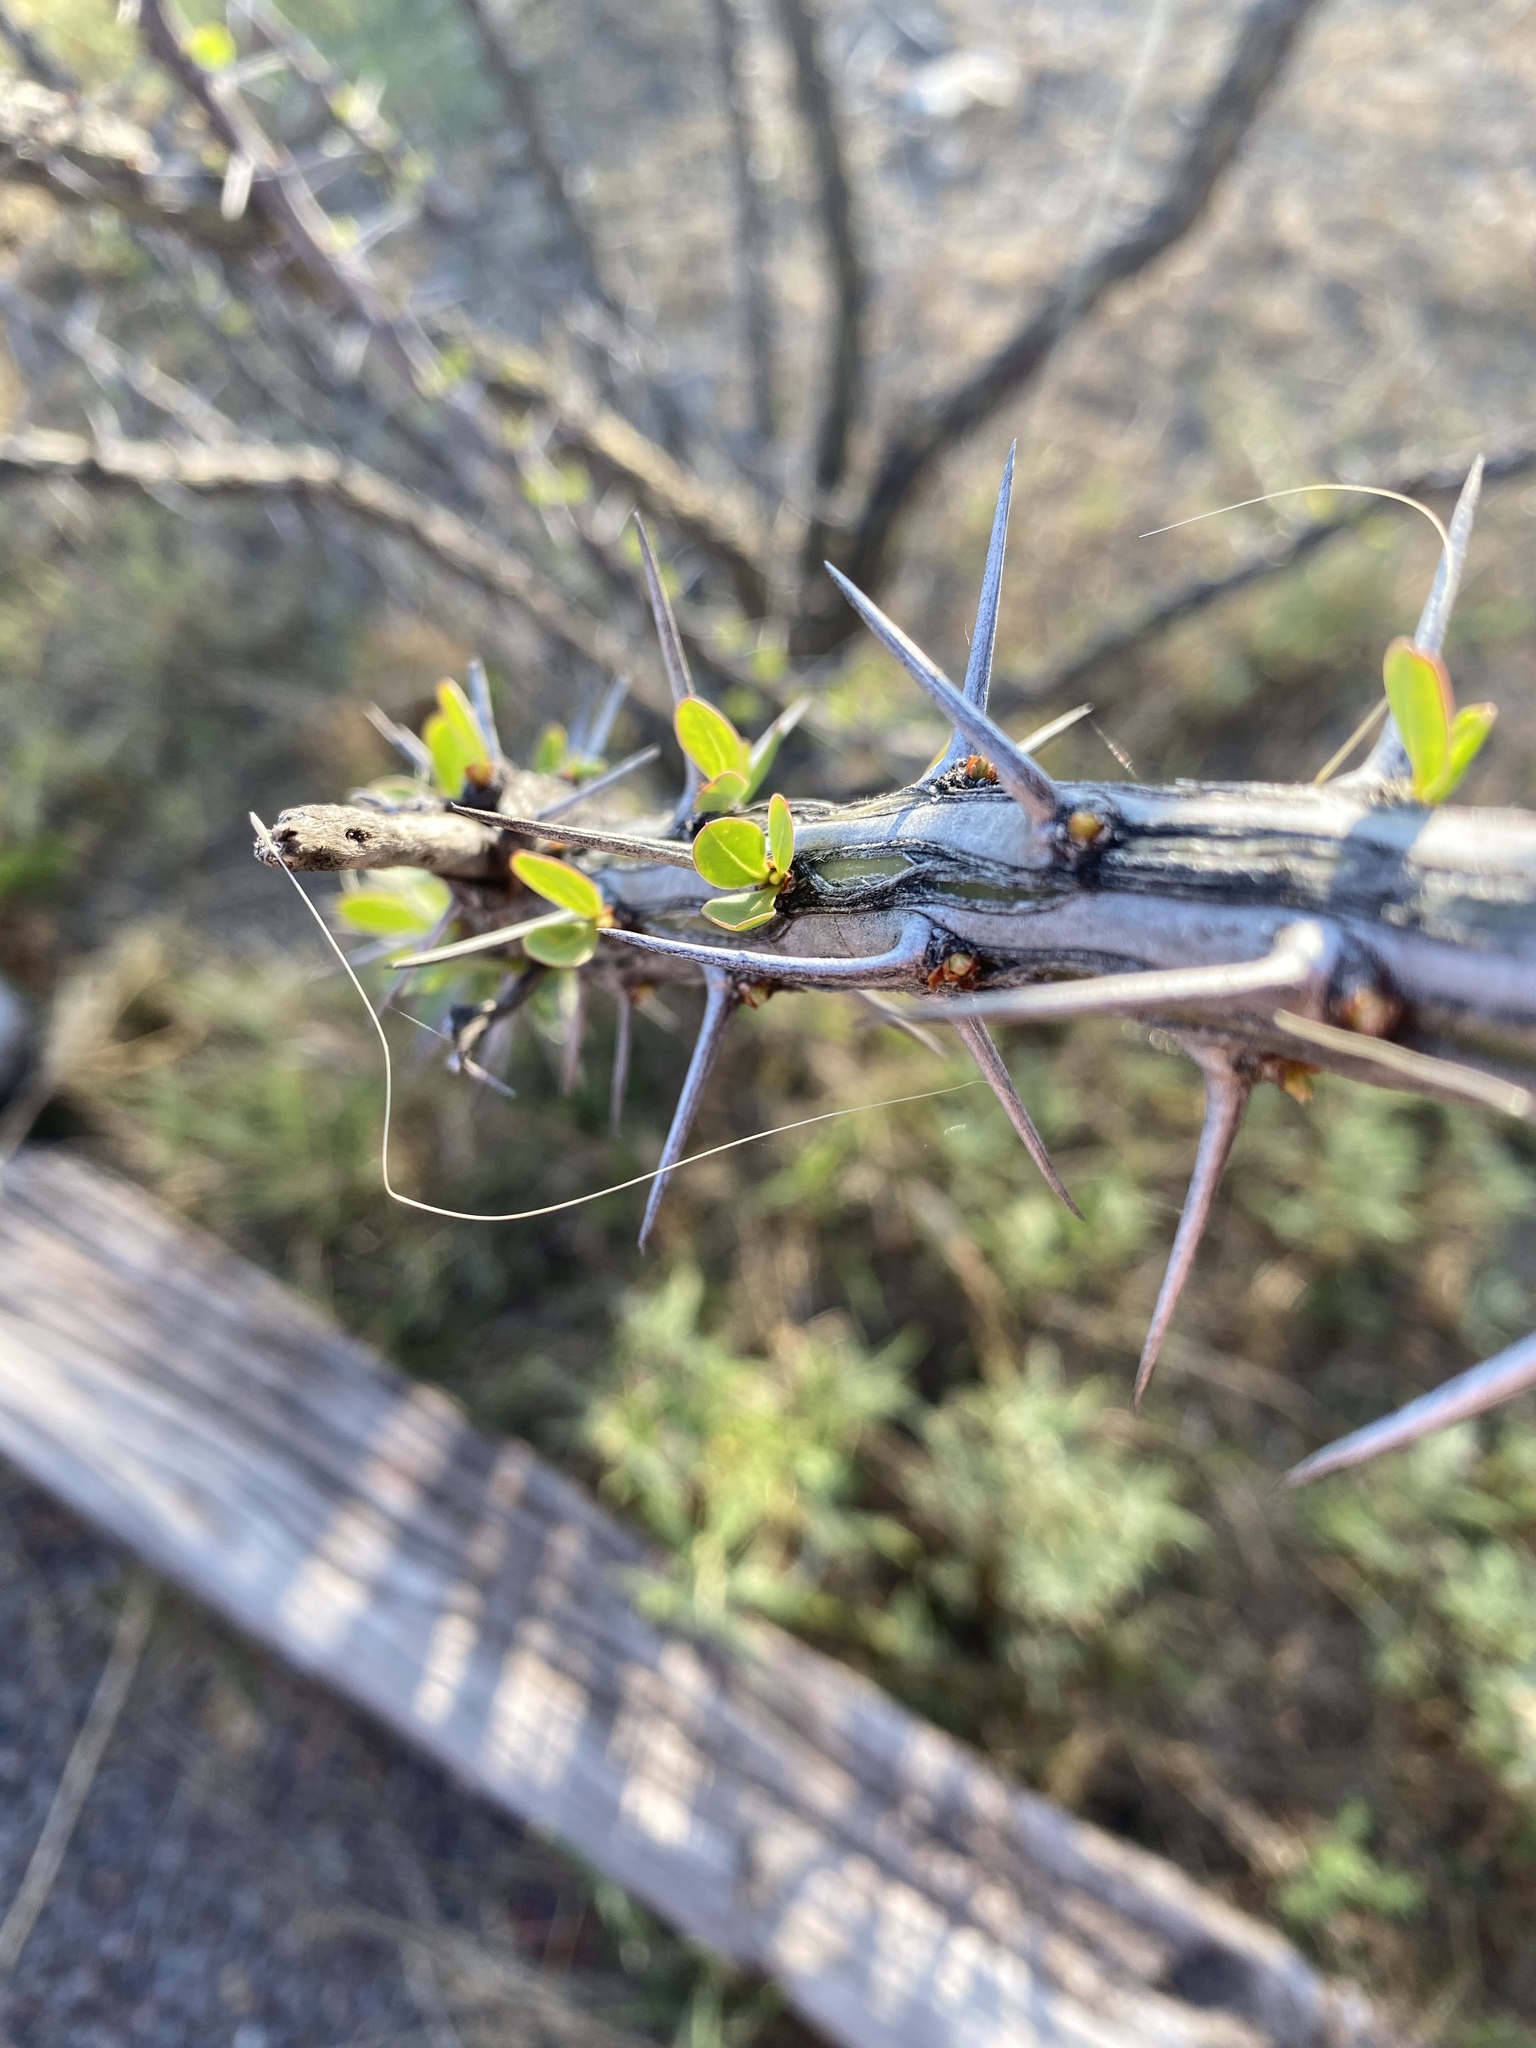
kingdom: Plantae
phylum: Tracheophyta
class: Magnoliopsida
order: Ericales
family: Fouquieriaceae
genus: Fouquieria
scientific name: Fouquieria splendens
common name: Vine-cactus
